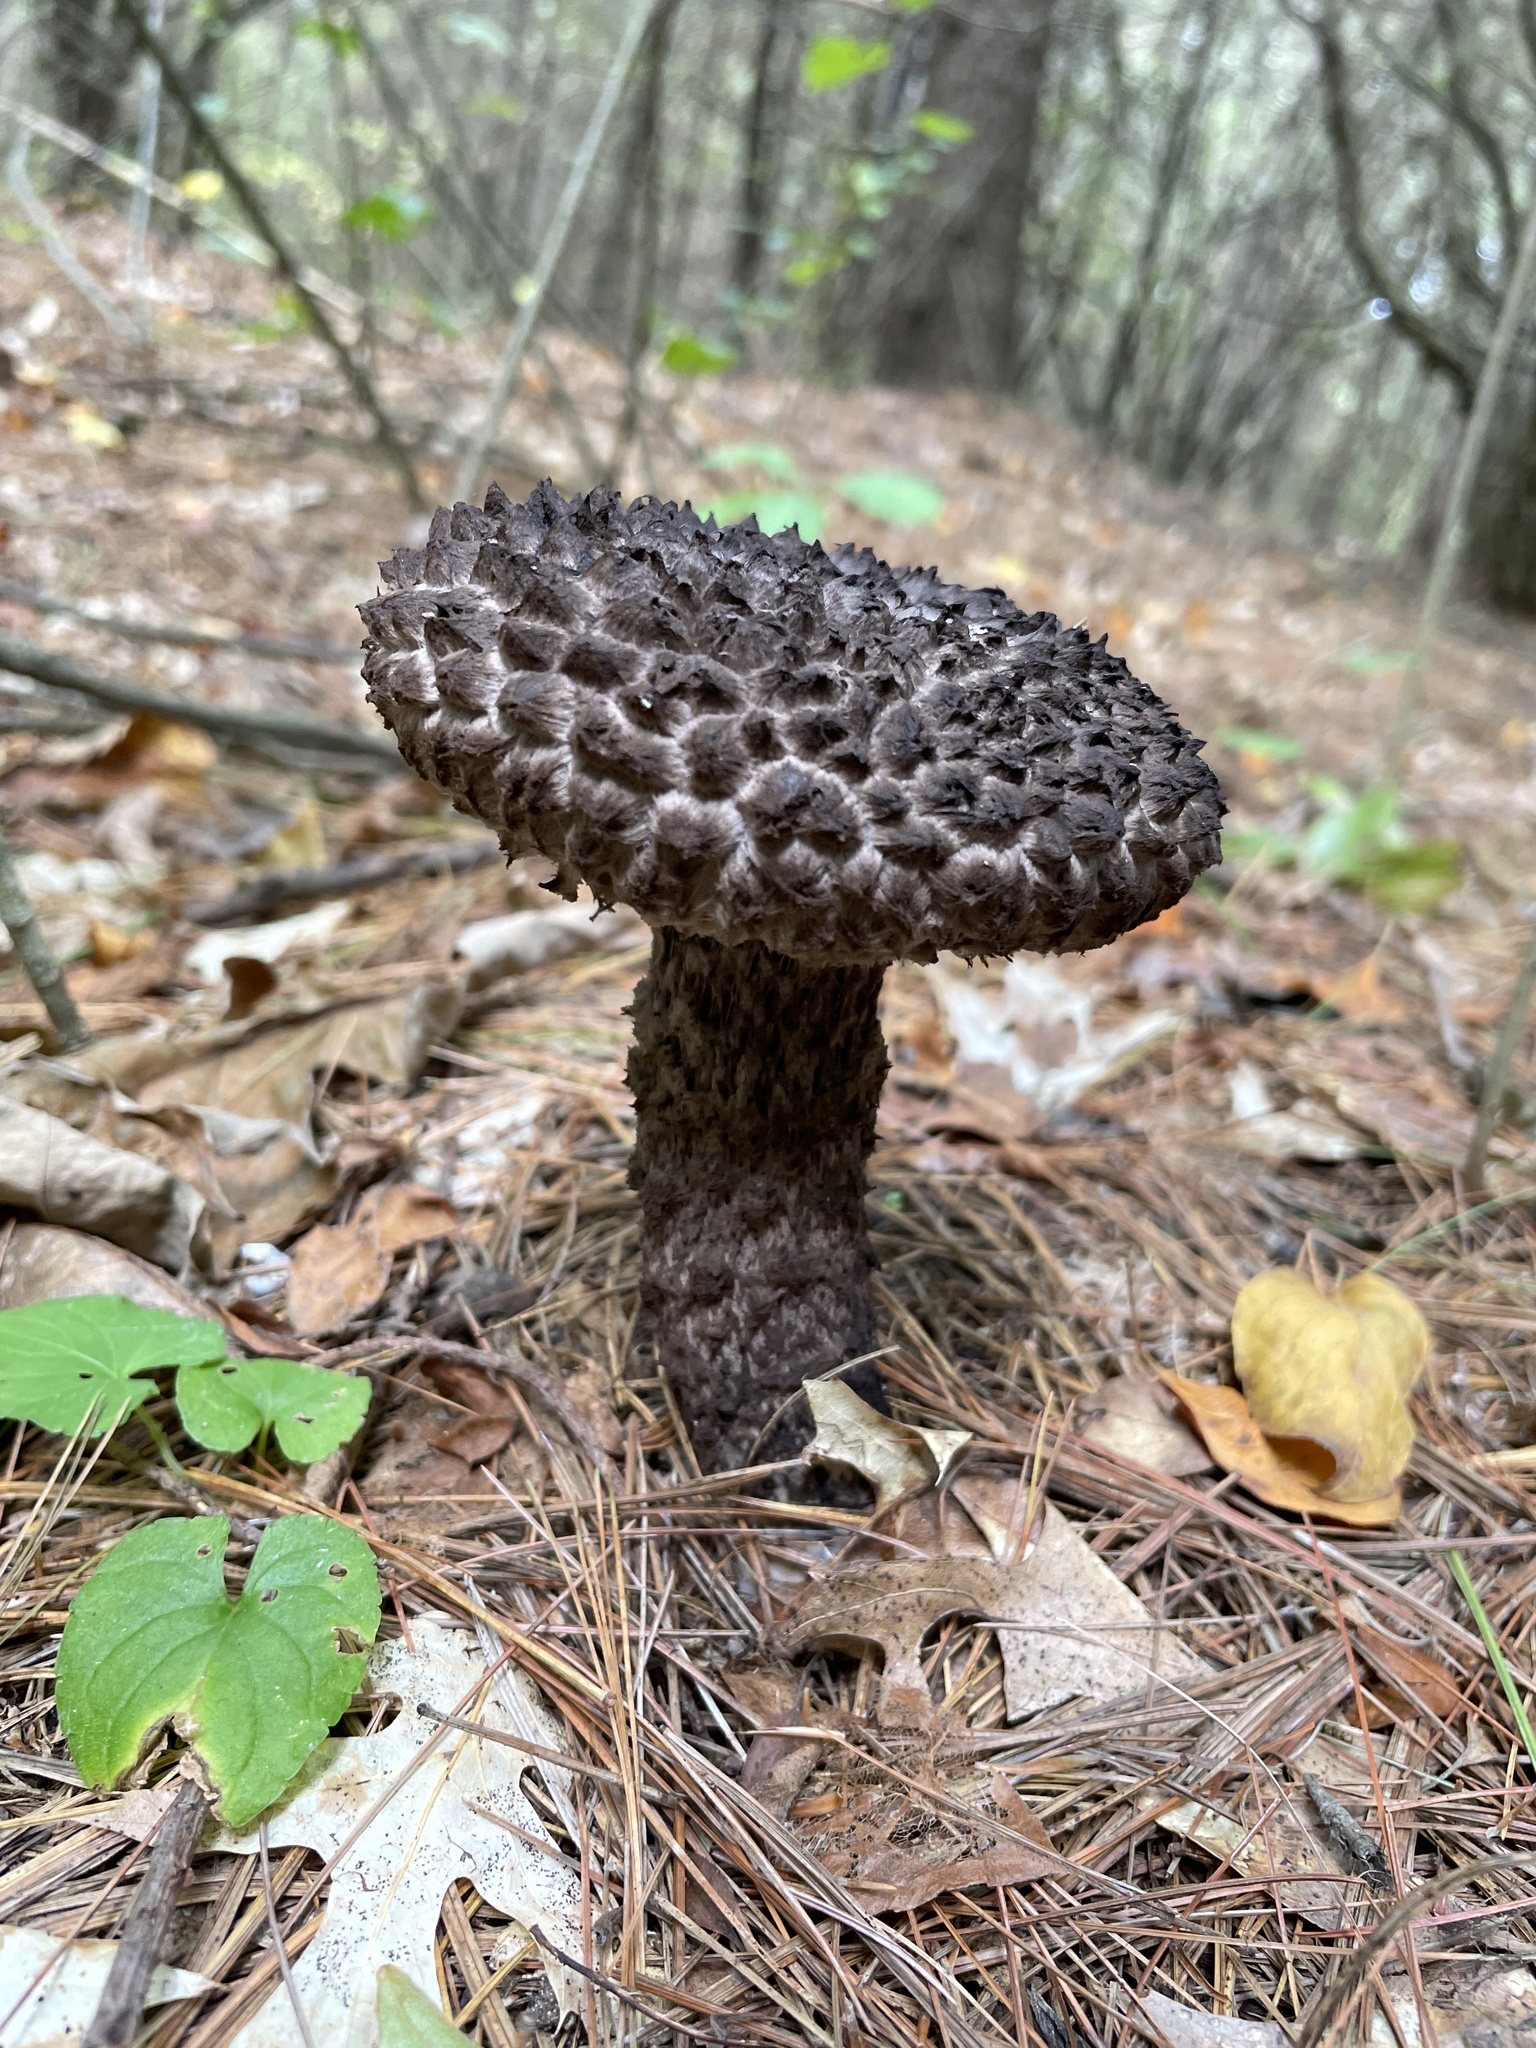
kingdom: Fungi
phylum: Basidiomycota
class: Agaricomycetes
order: Boletales
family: Boletaceae
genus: Strobilomyces
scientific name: Strobilomyces strobilaceus
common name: Old man of the woods
